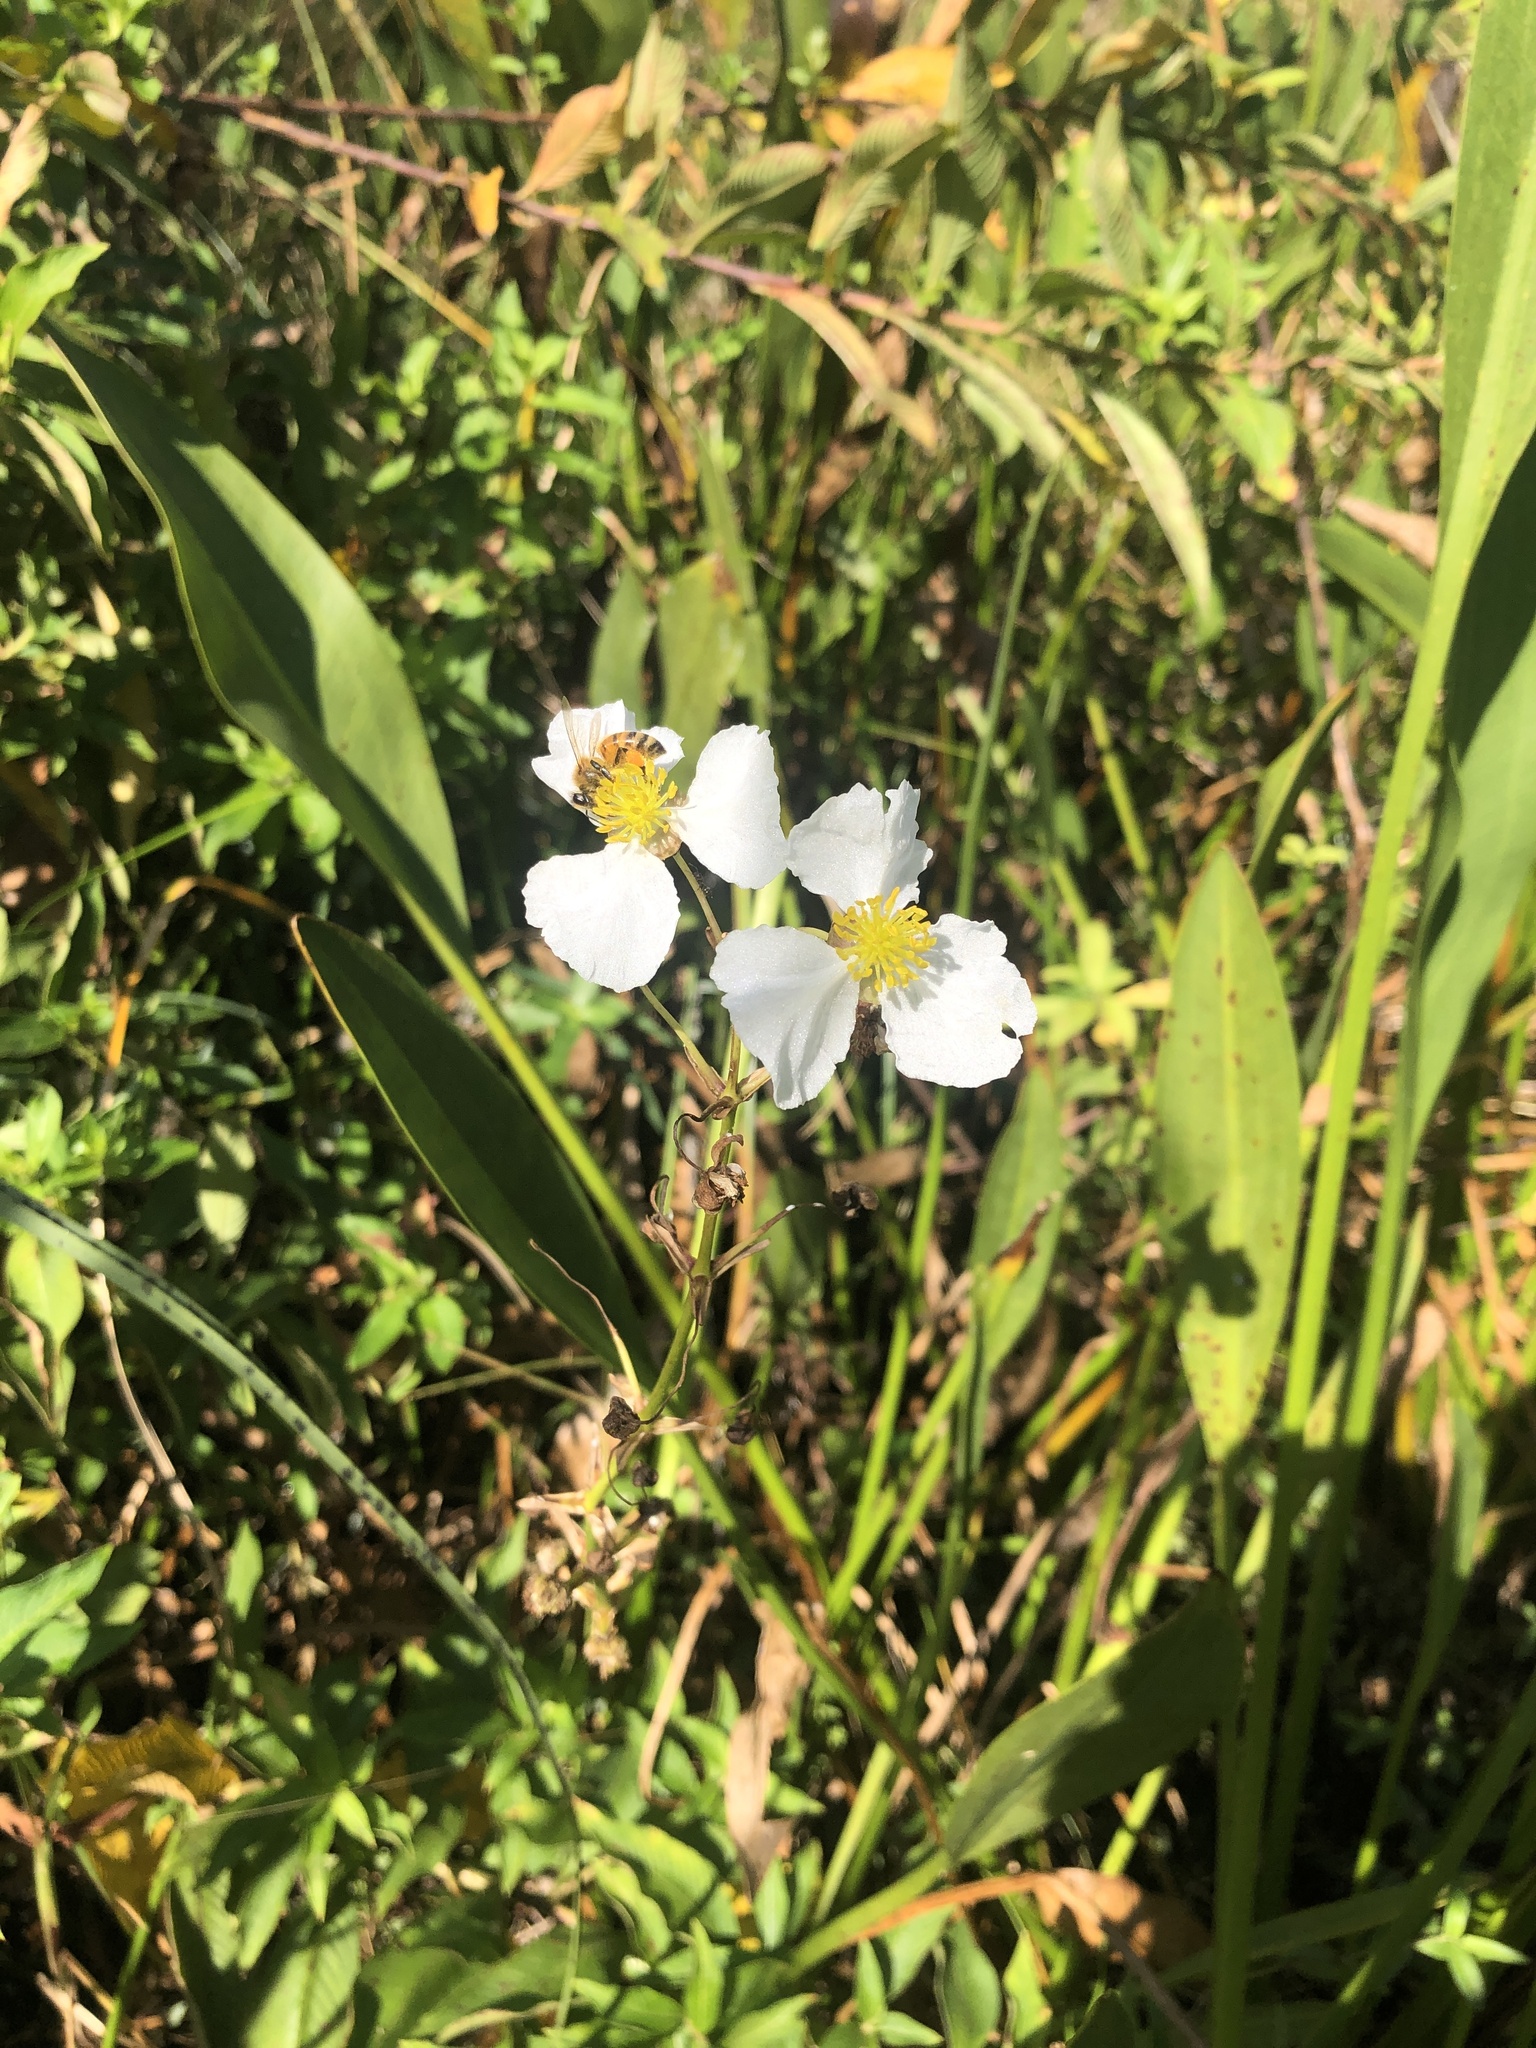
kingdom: Plantae
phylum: Tracheophyta
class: Liliopsida
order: Alismatales
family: Alismataceae
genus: Sagittaria
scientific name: Sagittaria lancifolia
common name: Lance-leaf arrowhead
